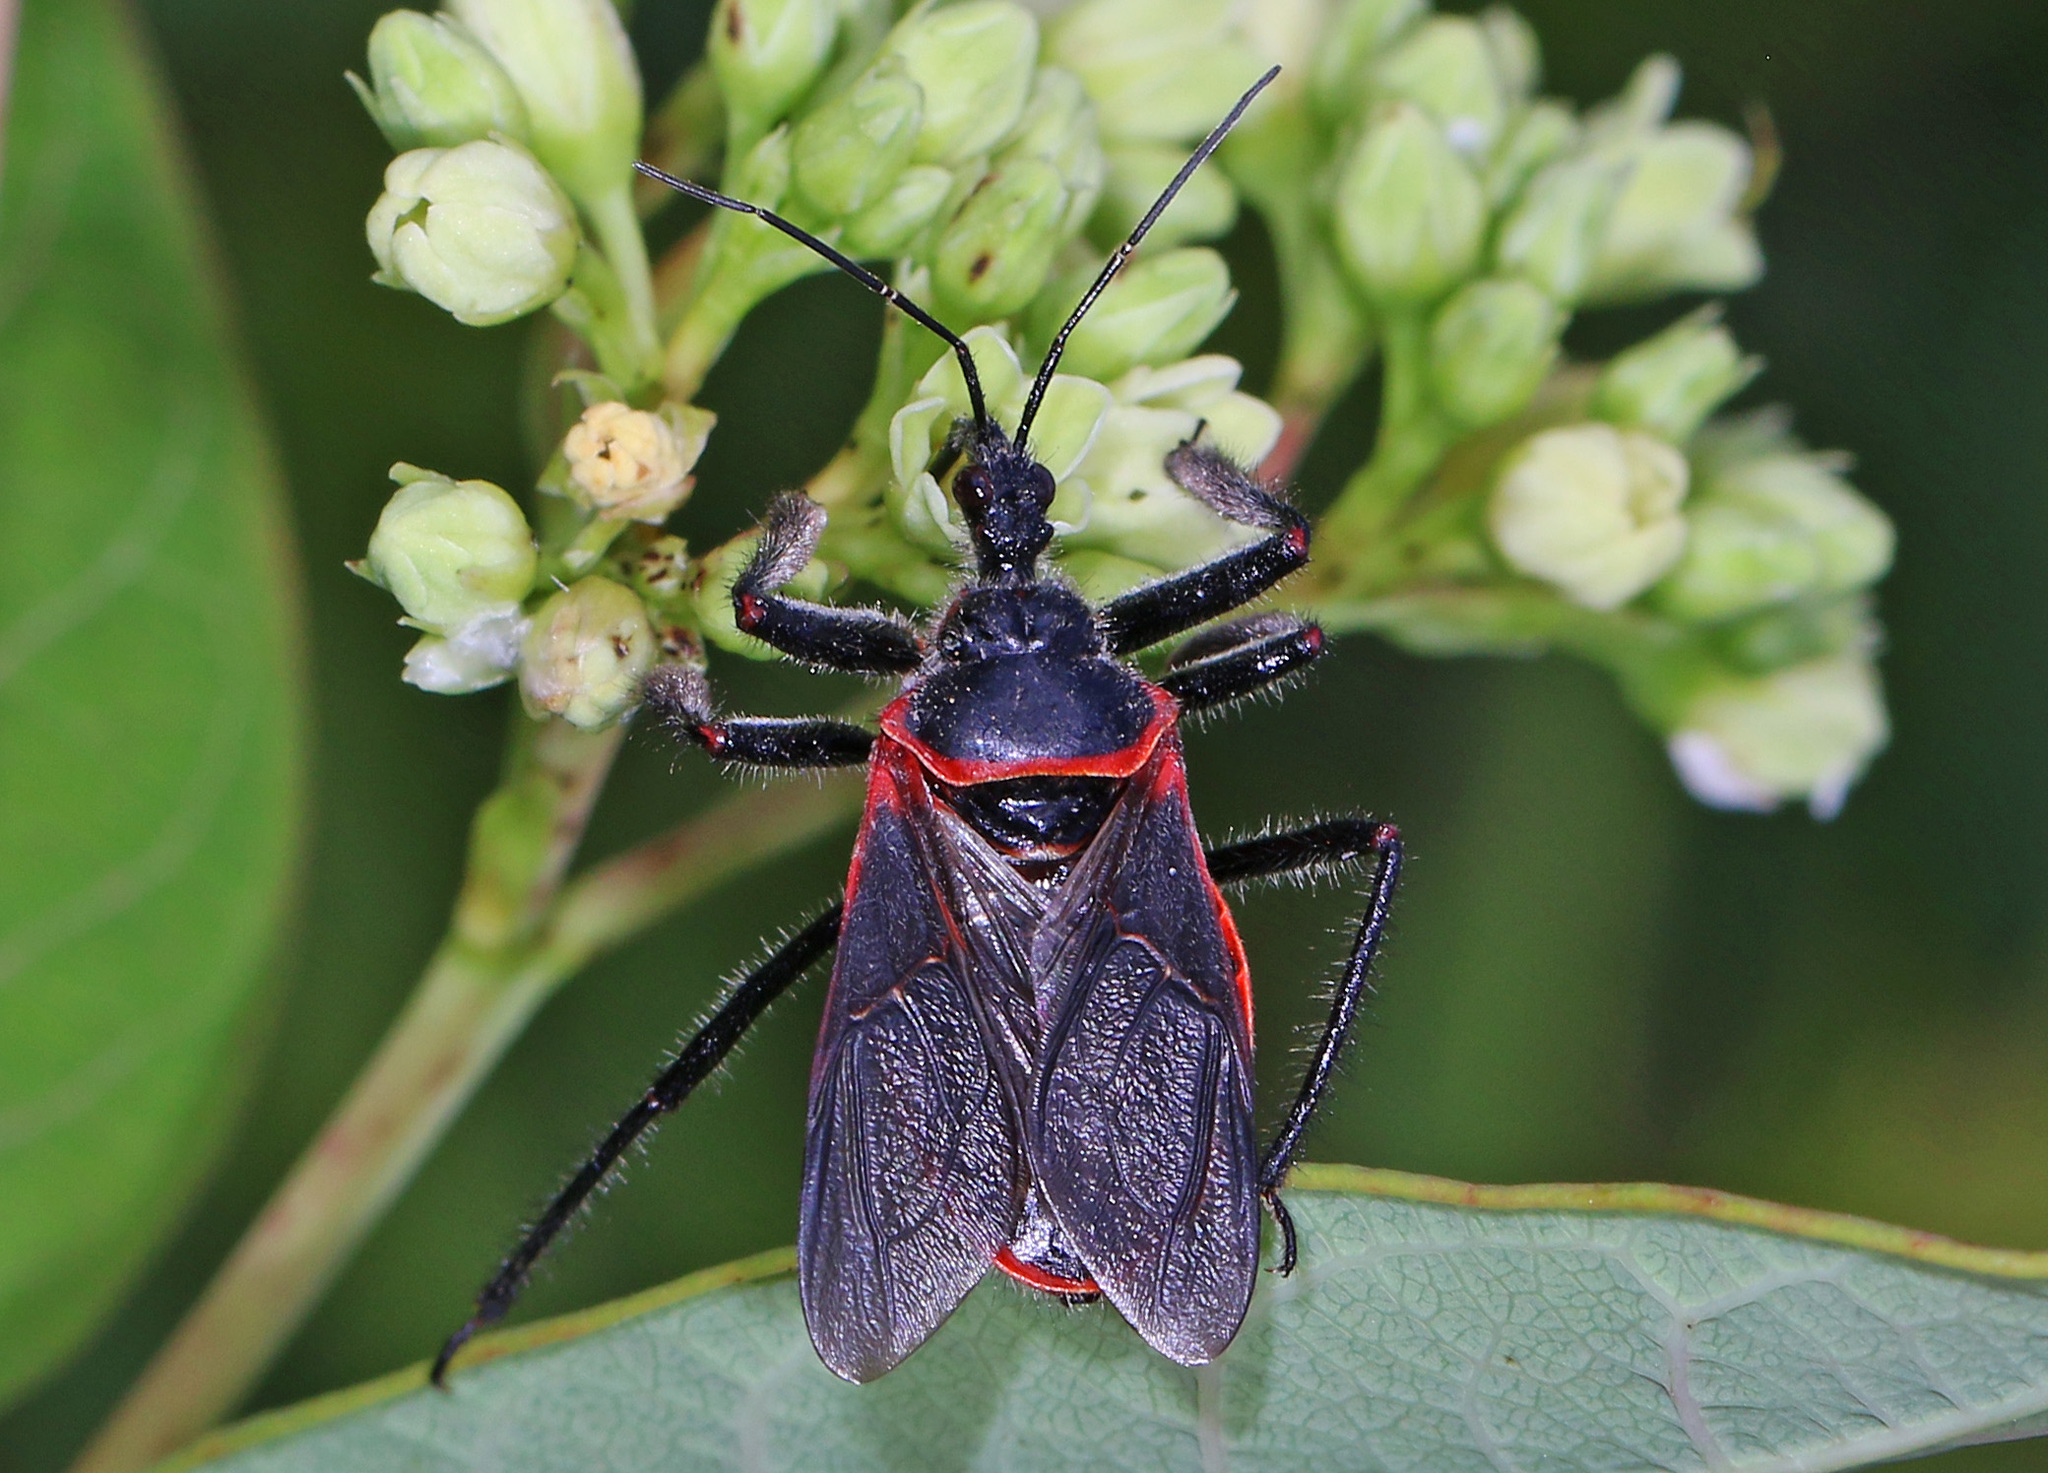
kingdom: Animalia
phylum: Arthropoda
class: Insecta
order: Hemiptera
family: Reduviidae
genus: Apiomerus
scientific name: Apiomerus crassipes
